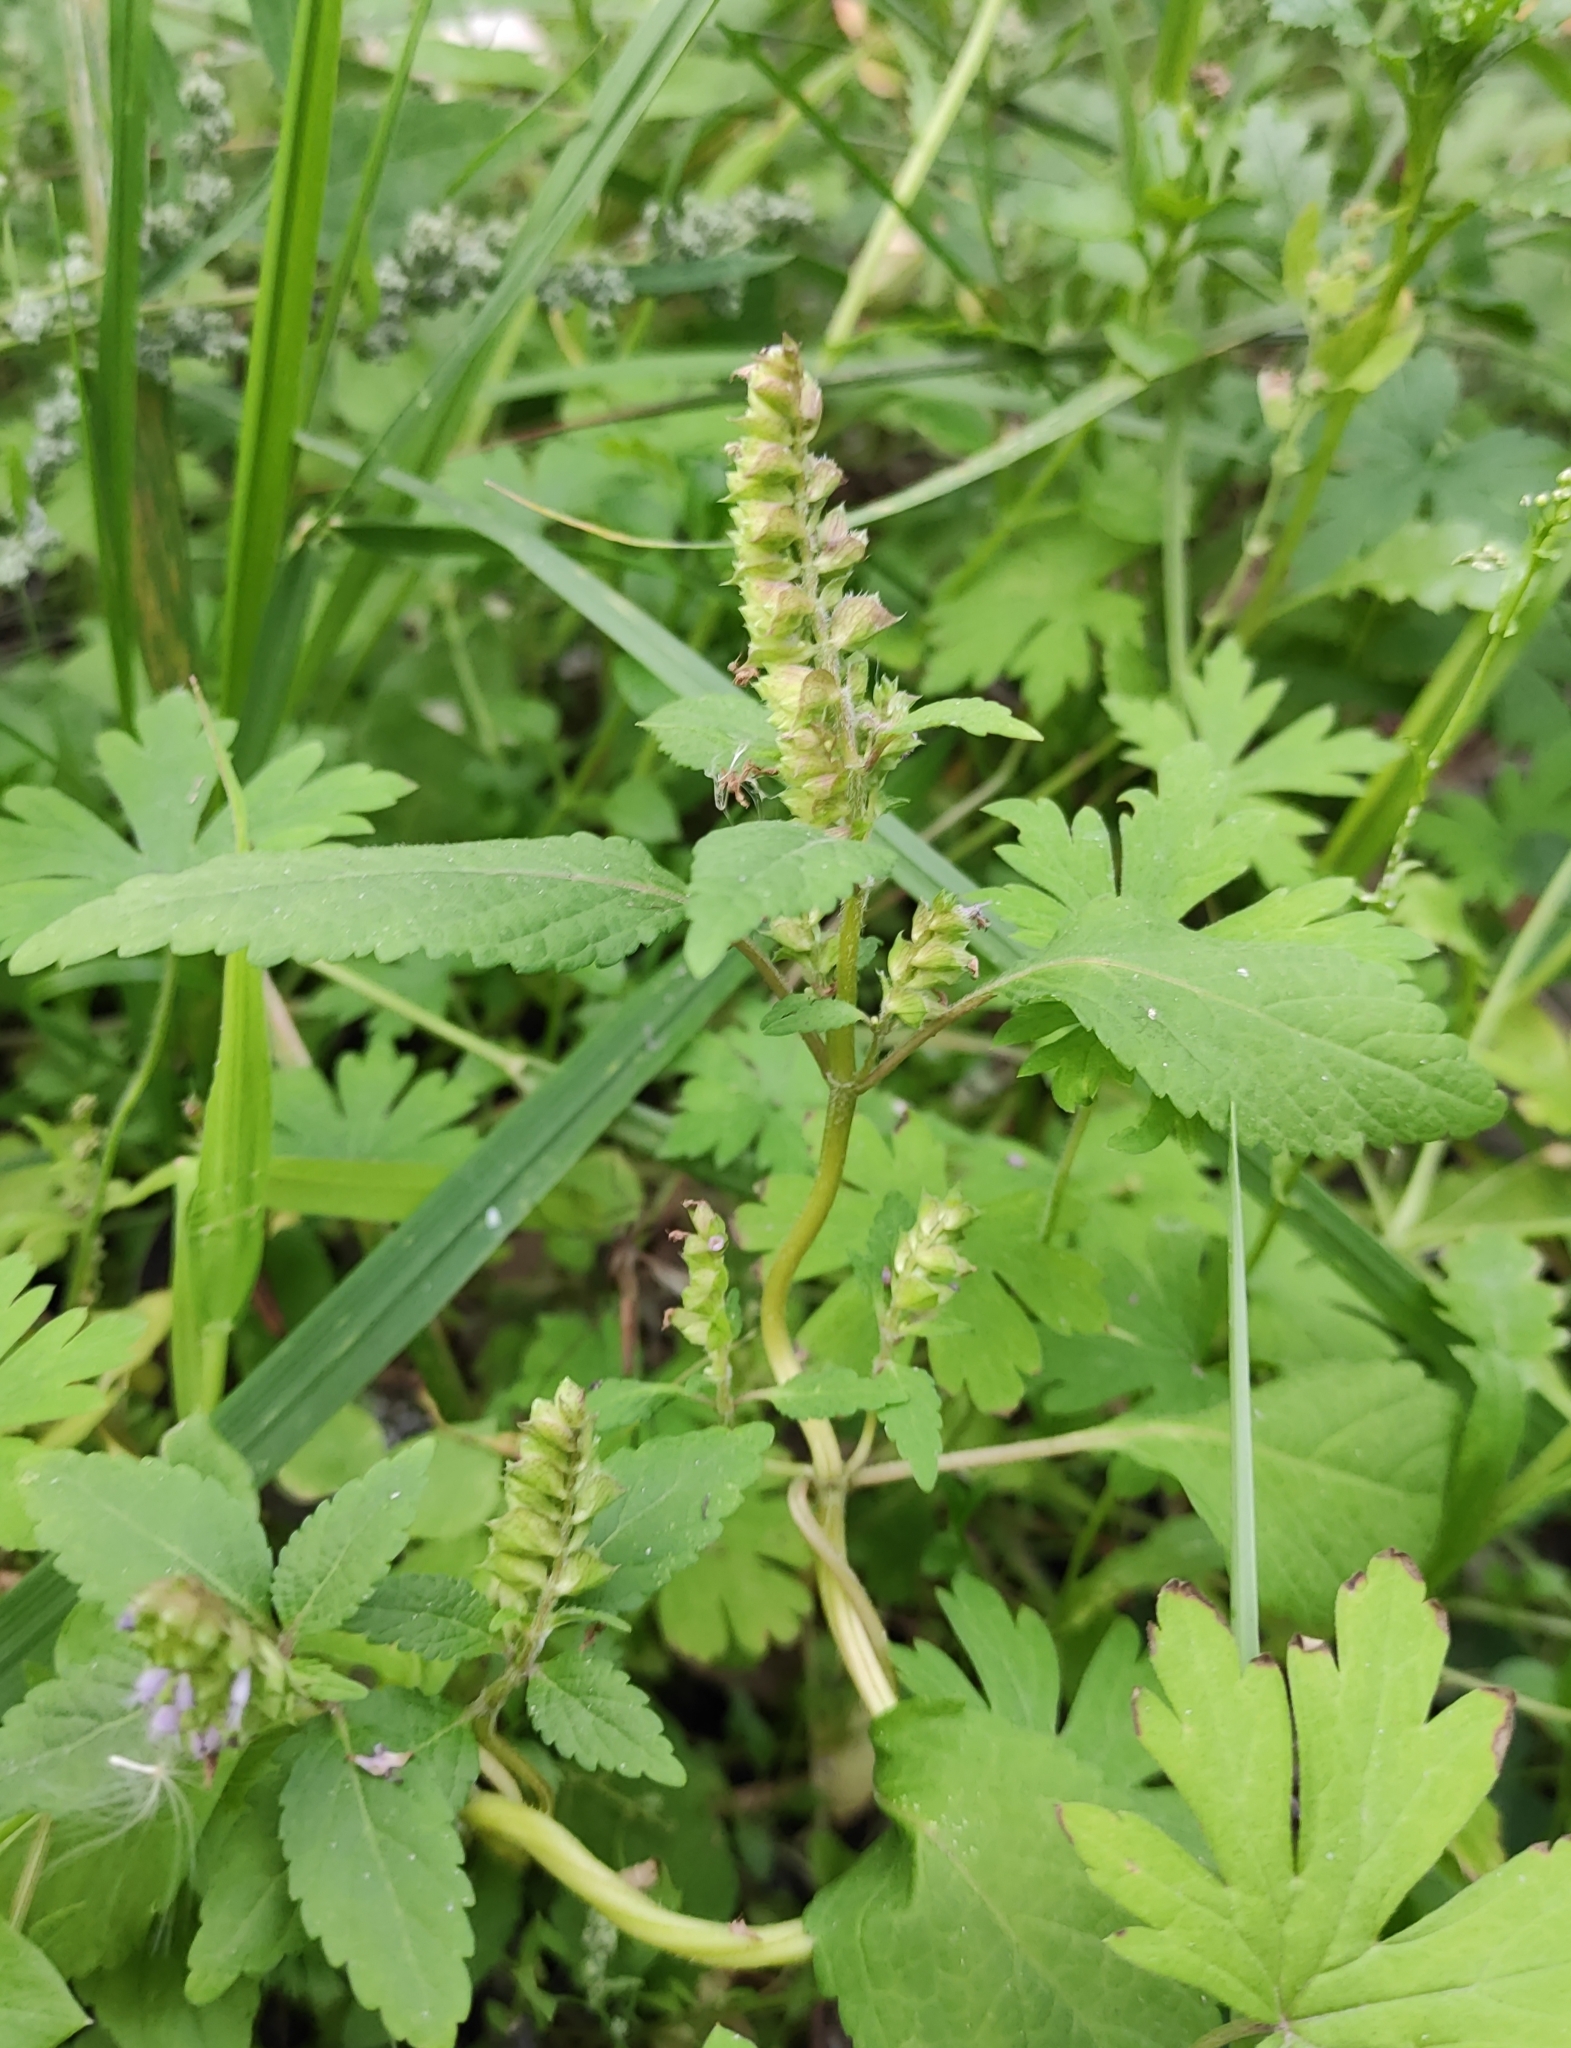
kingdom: Plantae
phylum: Tracheophyta
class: Magnoliopsida
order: Lamiales
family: Lamiaceae
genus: Elsholtzia
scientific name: Elsholtzia ciliata
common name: Ciliate elsholtzia
